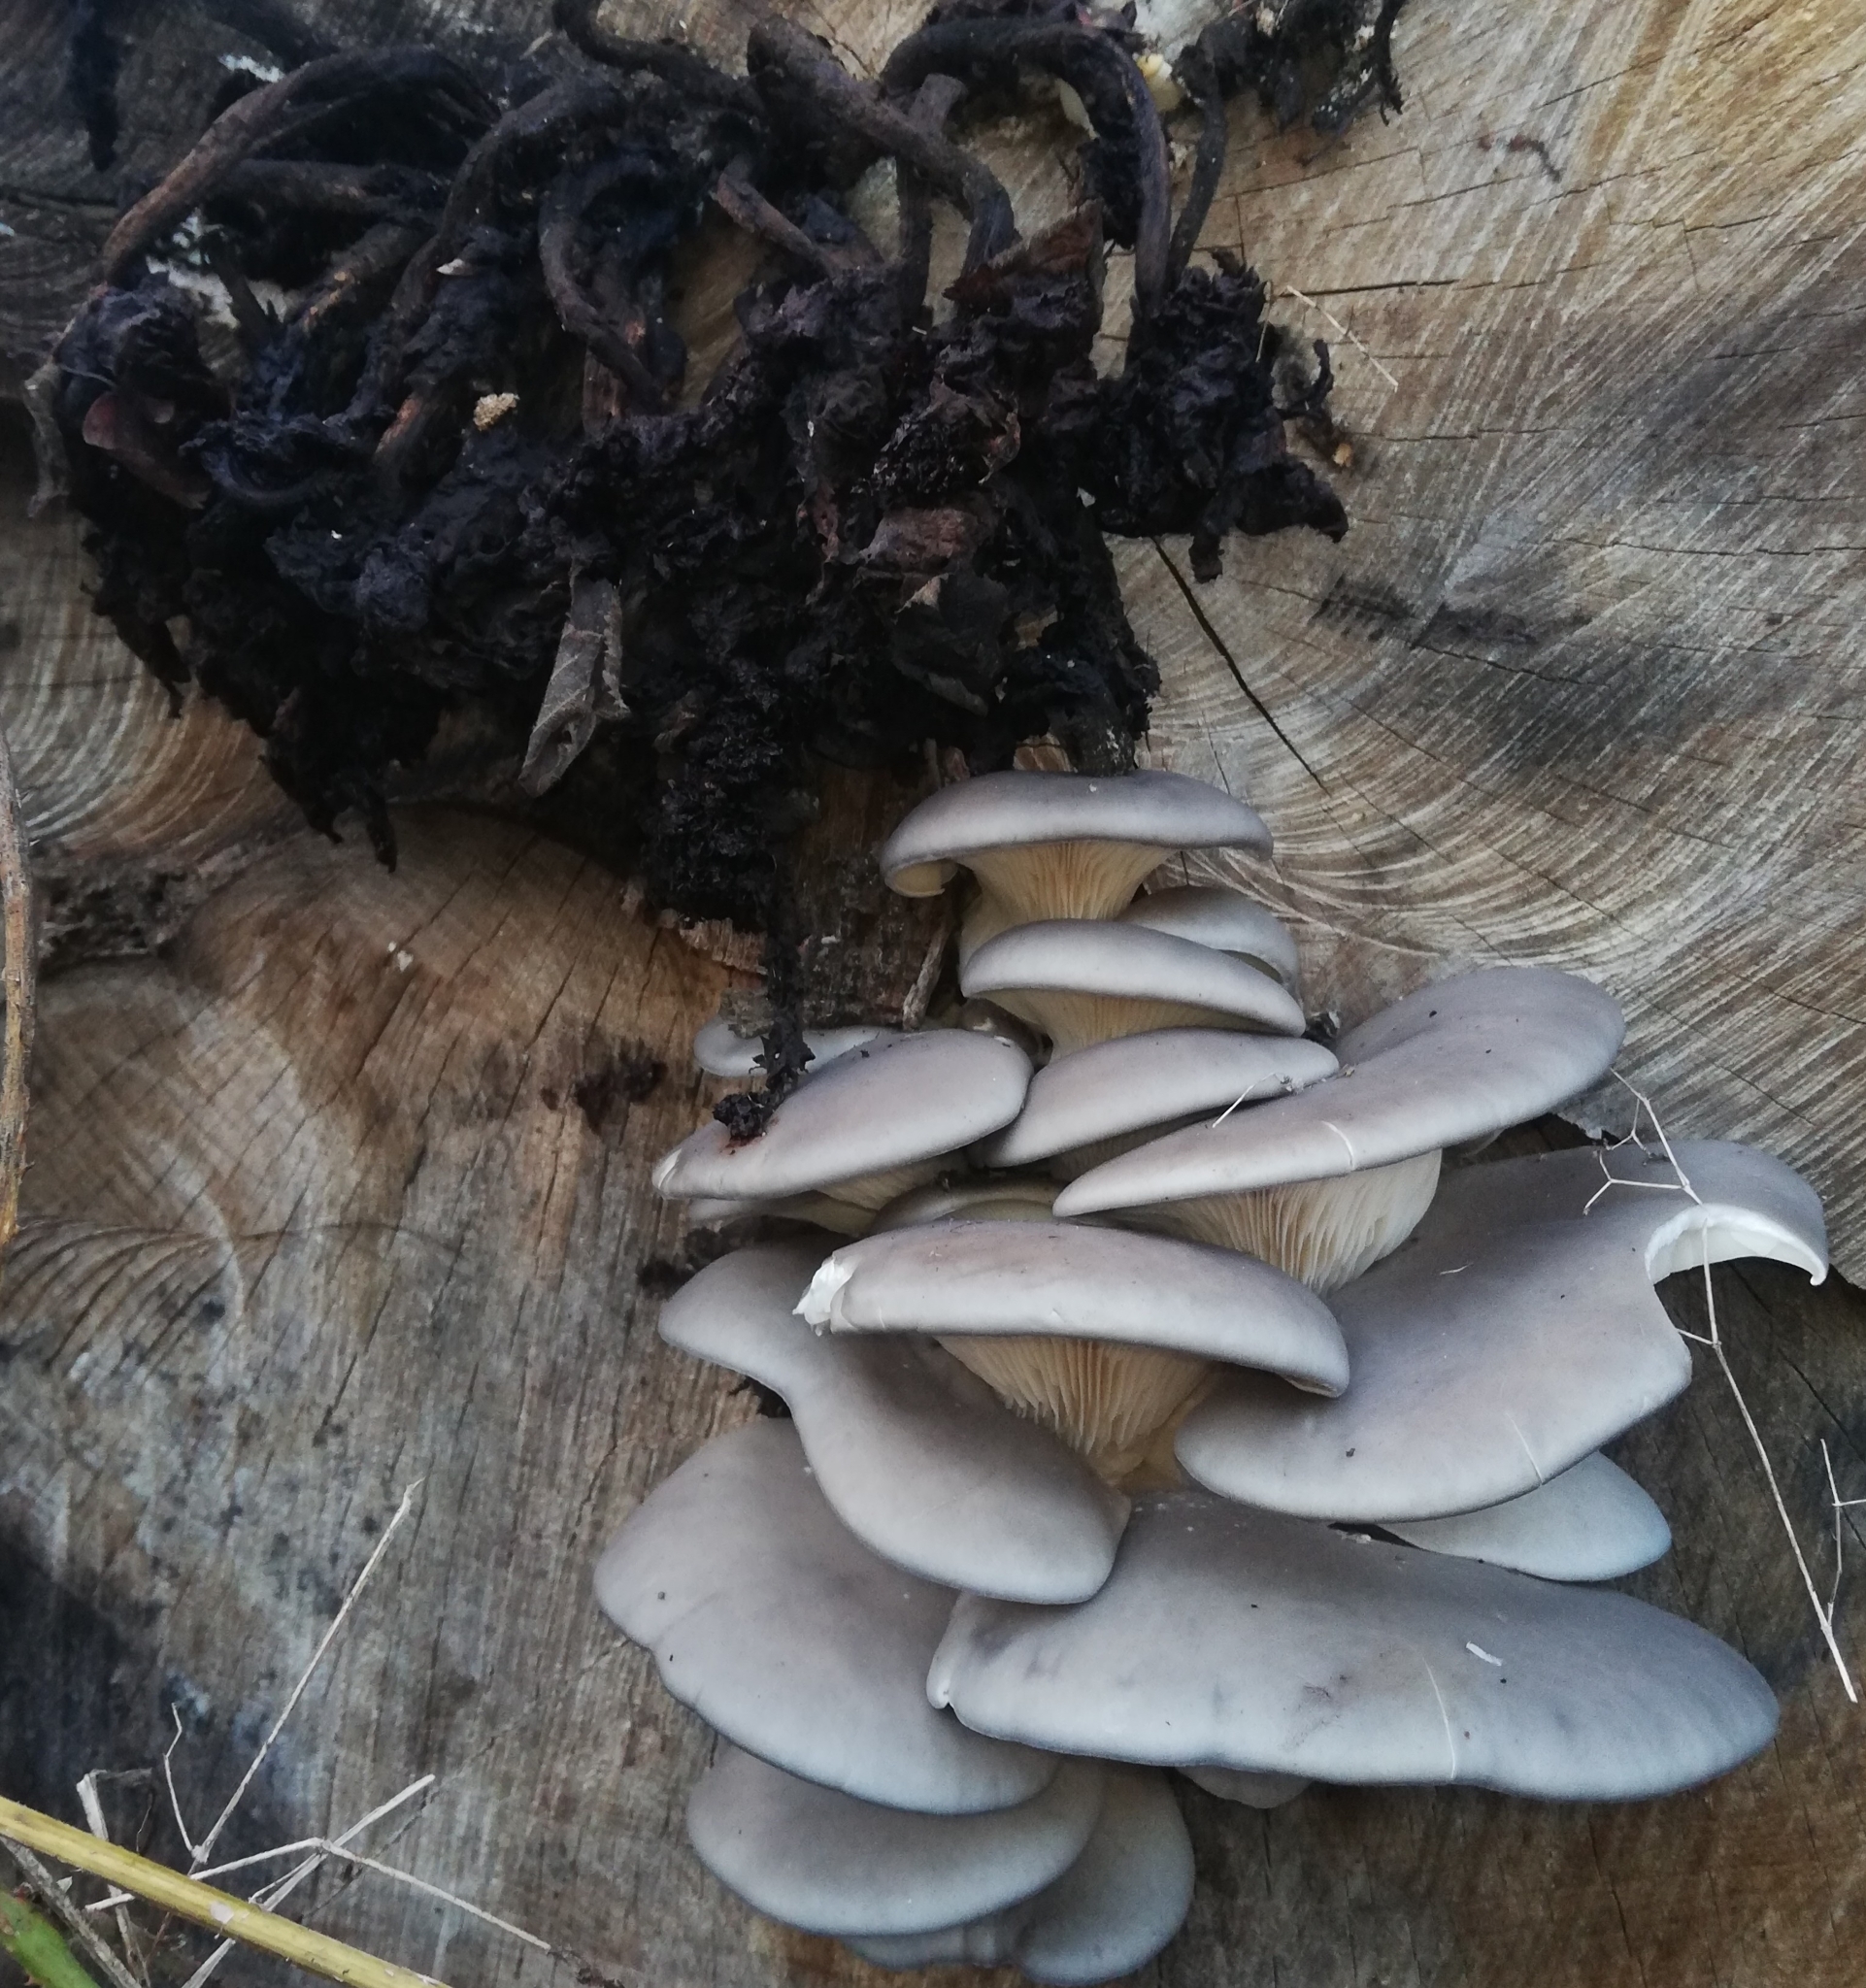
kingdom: Fungi
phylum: Basidiomycota
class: Agaricomycetes
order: Agaricales
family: Pleurotaceae
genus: Pleurotus
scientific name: Pleurotus ostreatus
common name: Oyster mushroom
